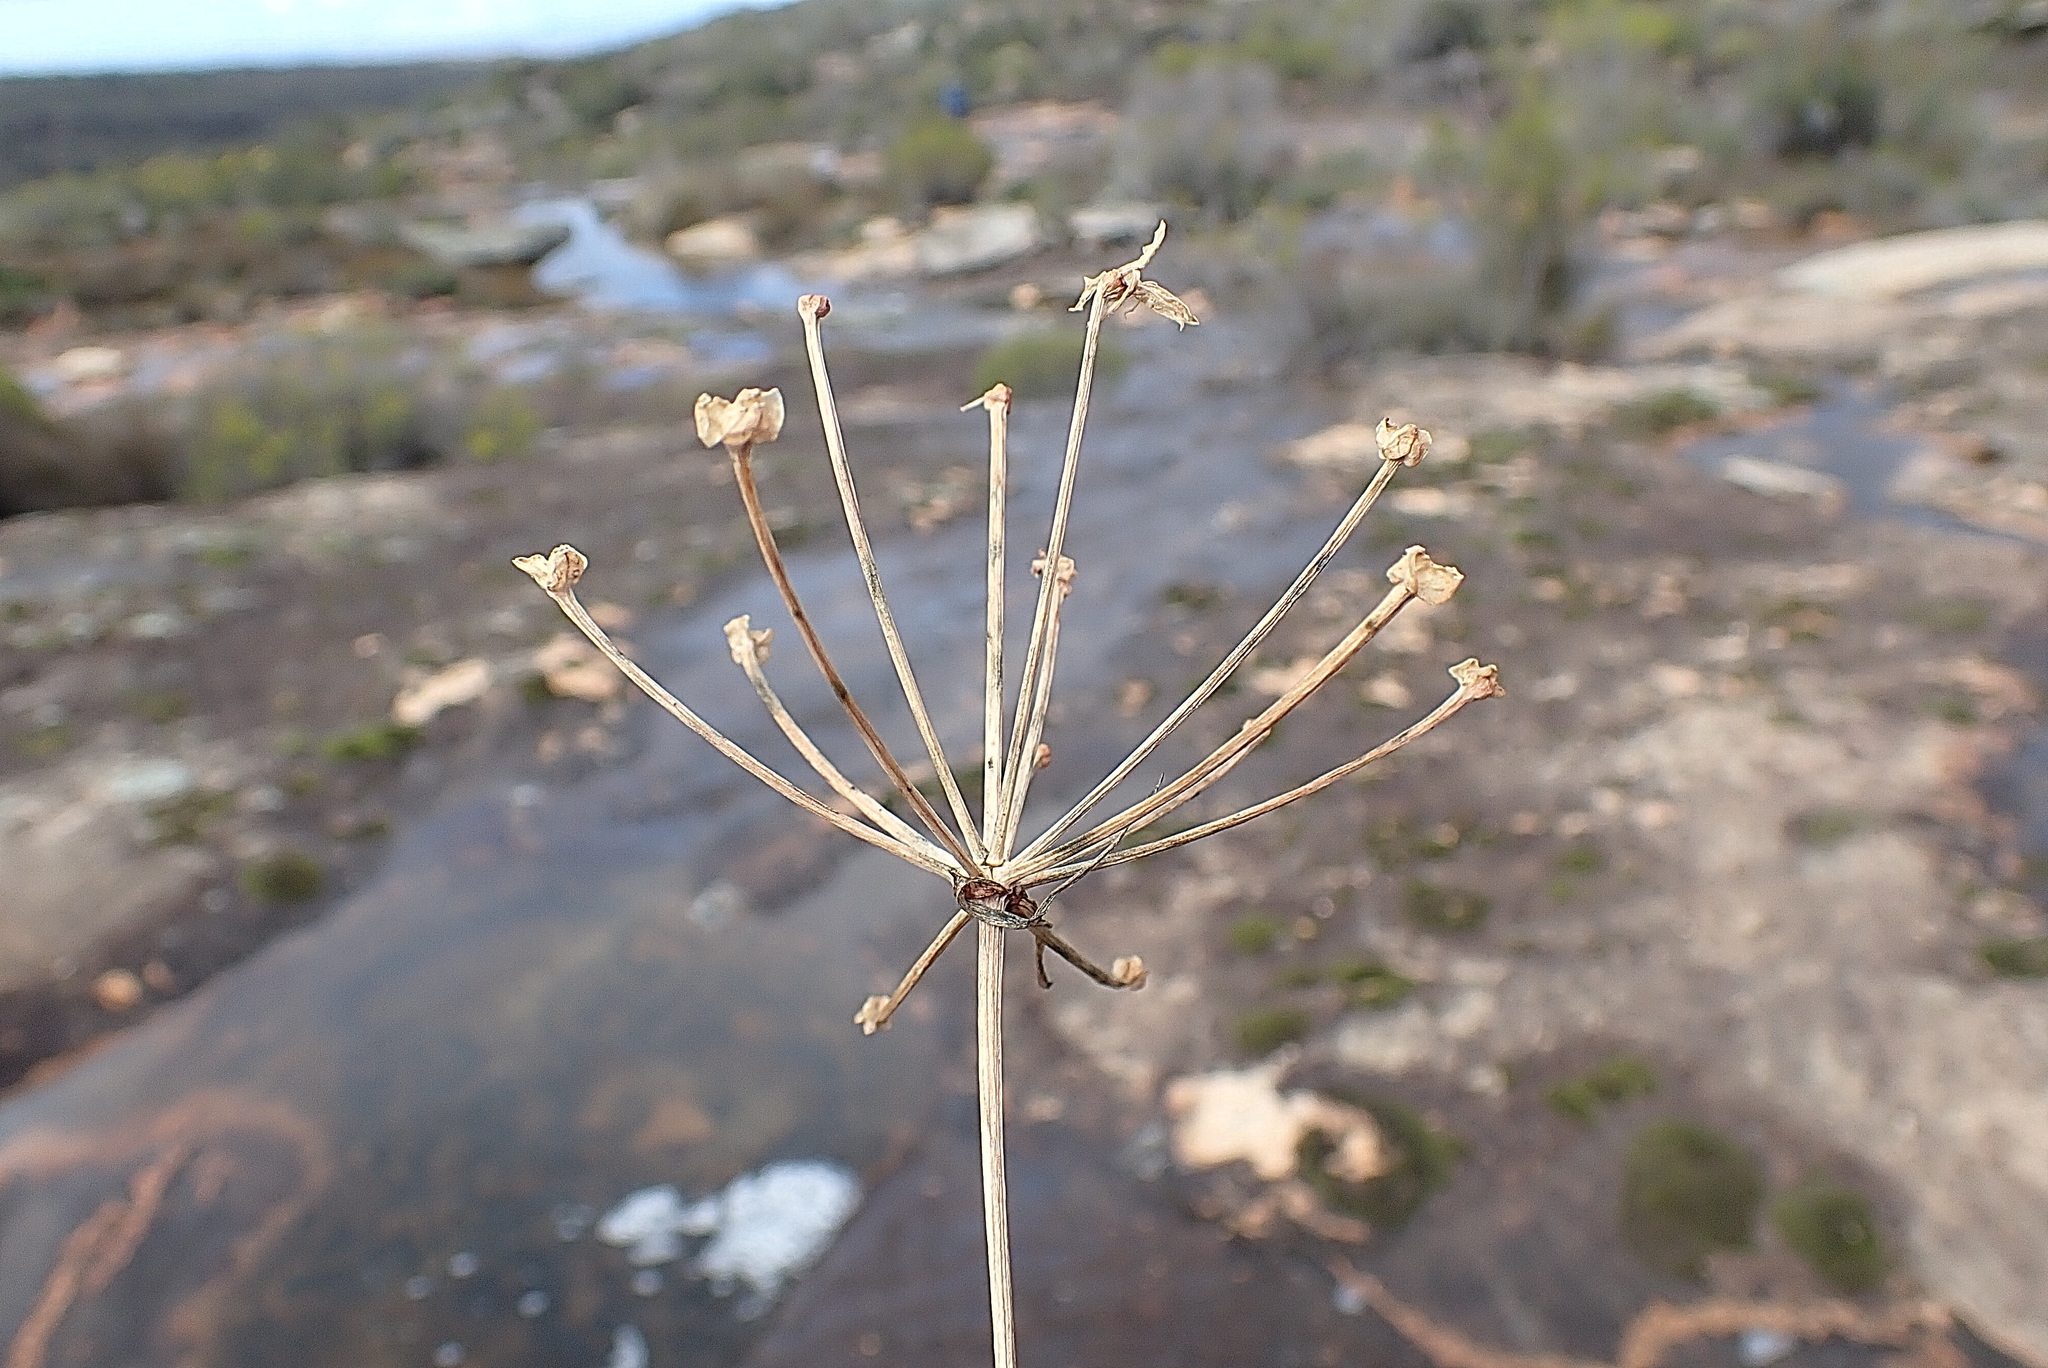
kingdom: Plantae
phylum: Tracheophyta
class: Liliopsida
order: Asparagales
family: Amaryllidaceae
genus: Hessea
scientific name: Hessea undosa
